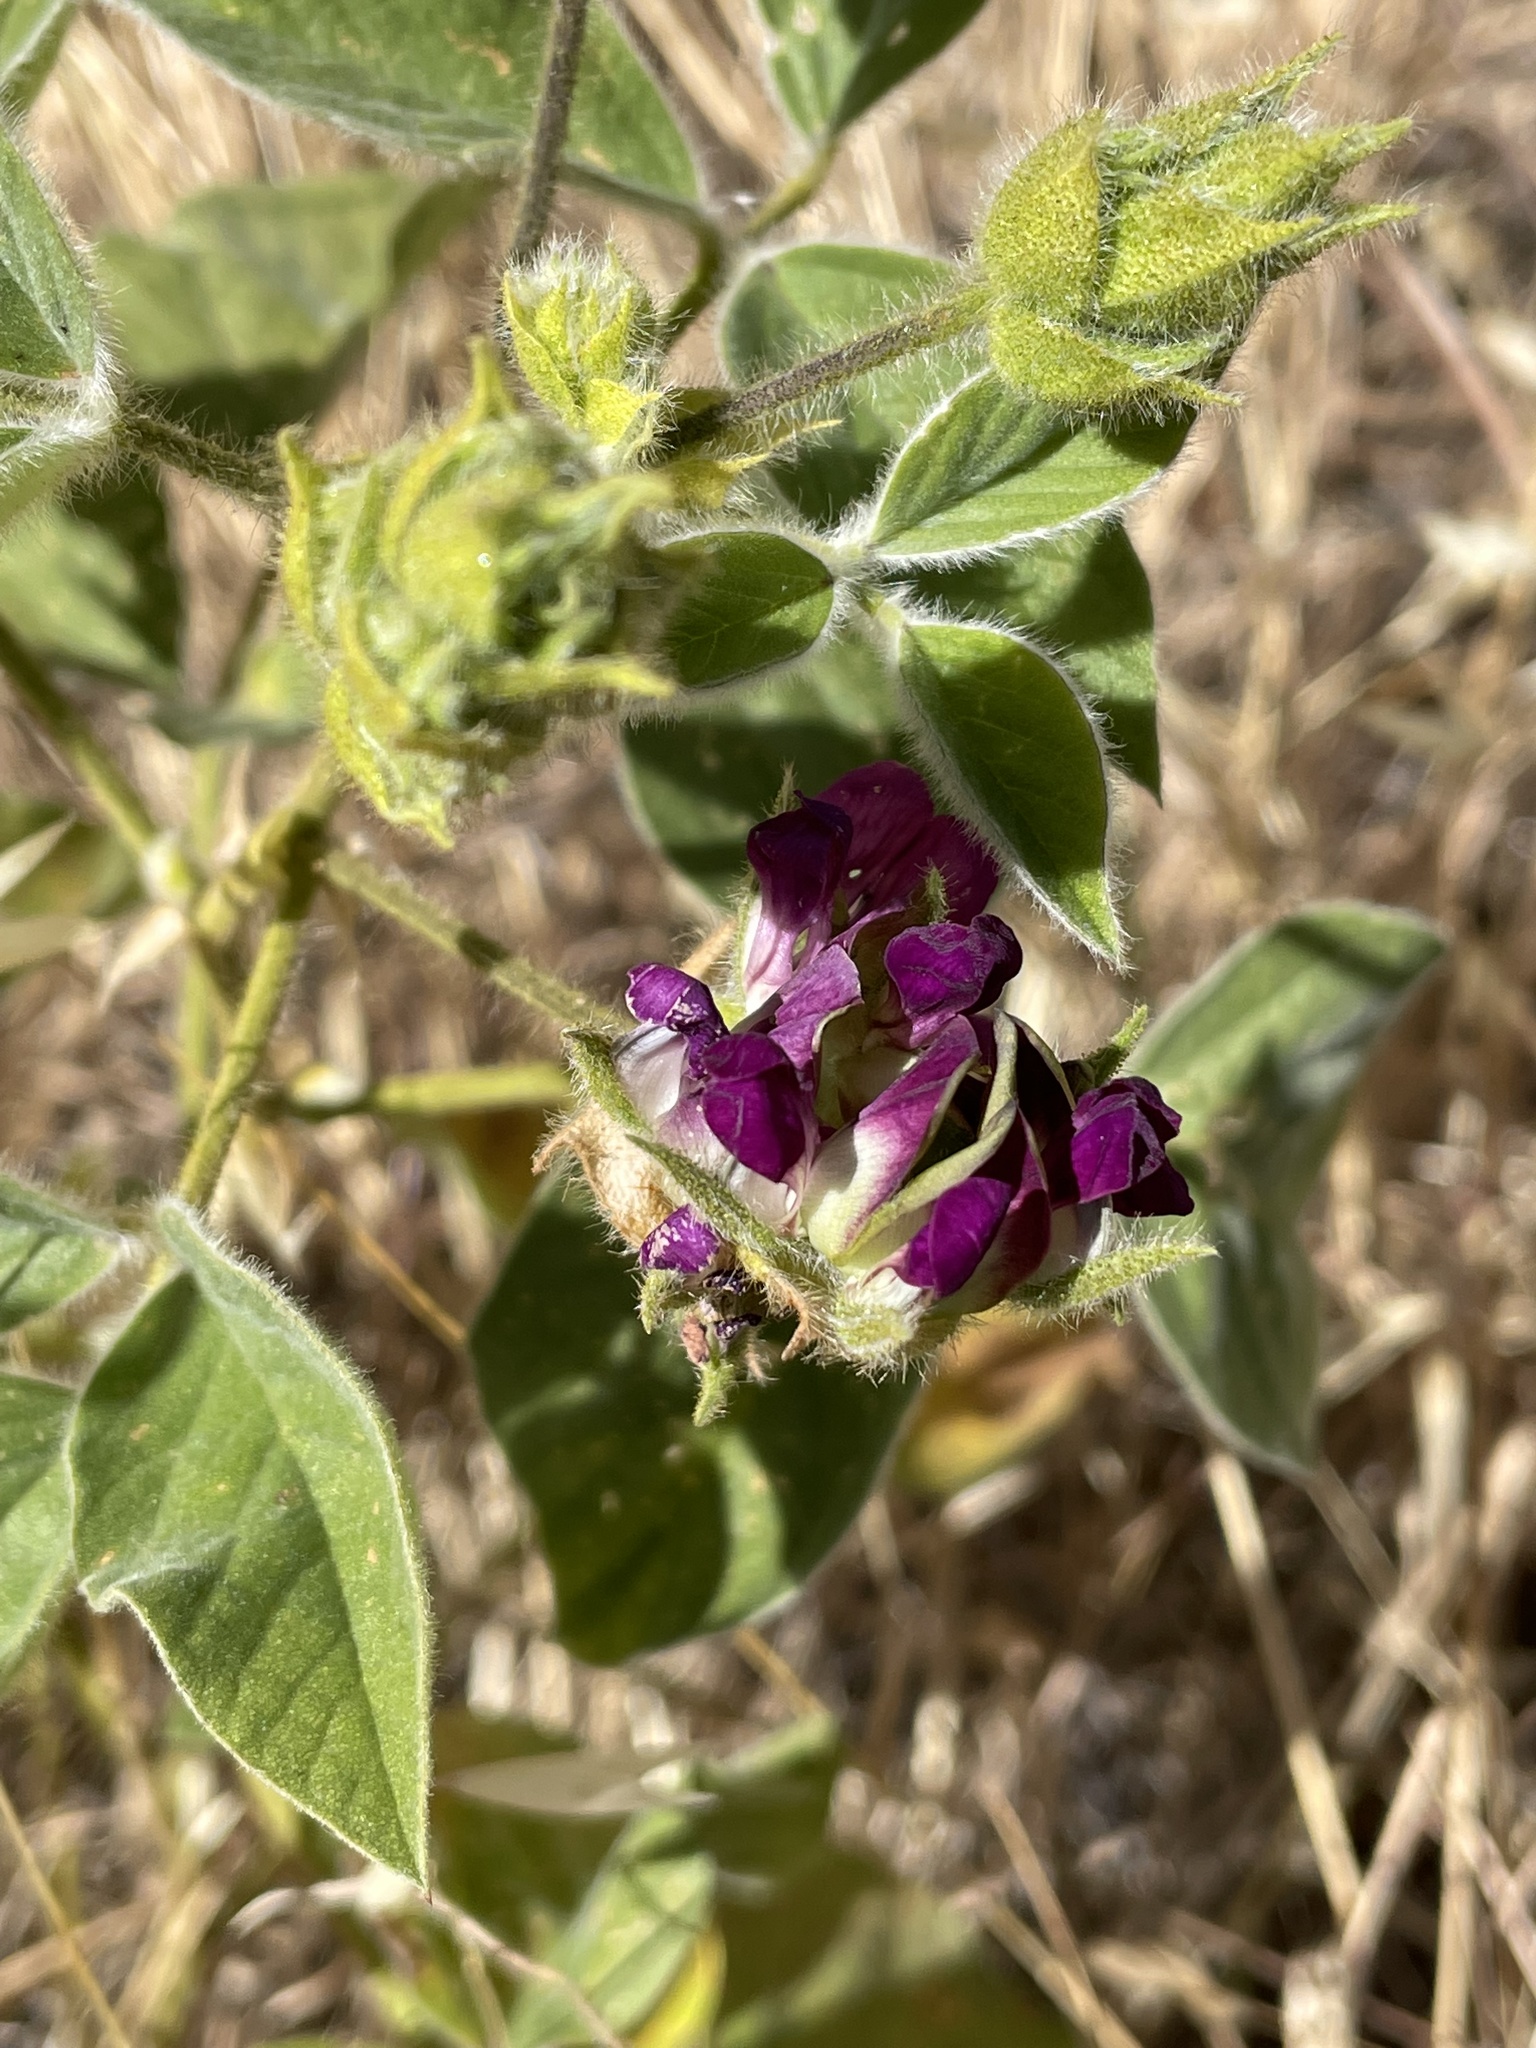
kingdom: Plantae
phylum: Tracheophyta
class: Magnoliopsida
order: Fabales
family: Fabaceae
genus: Hoita
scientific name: Hoita strobilina
